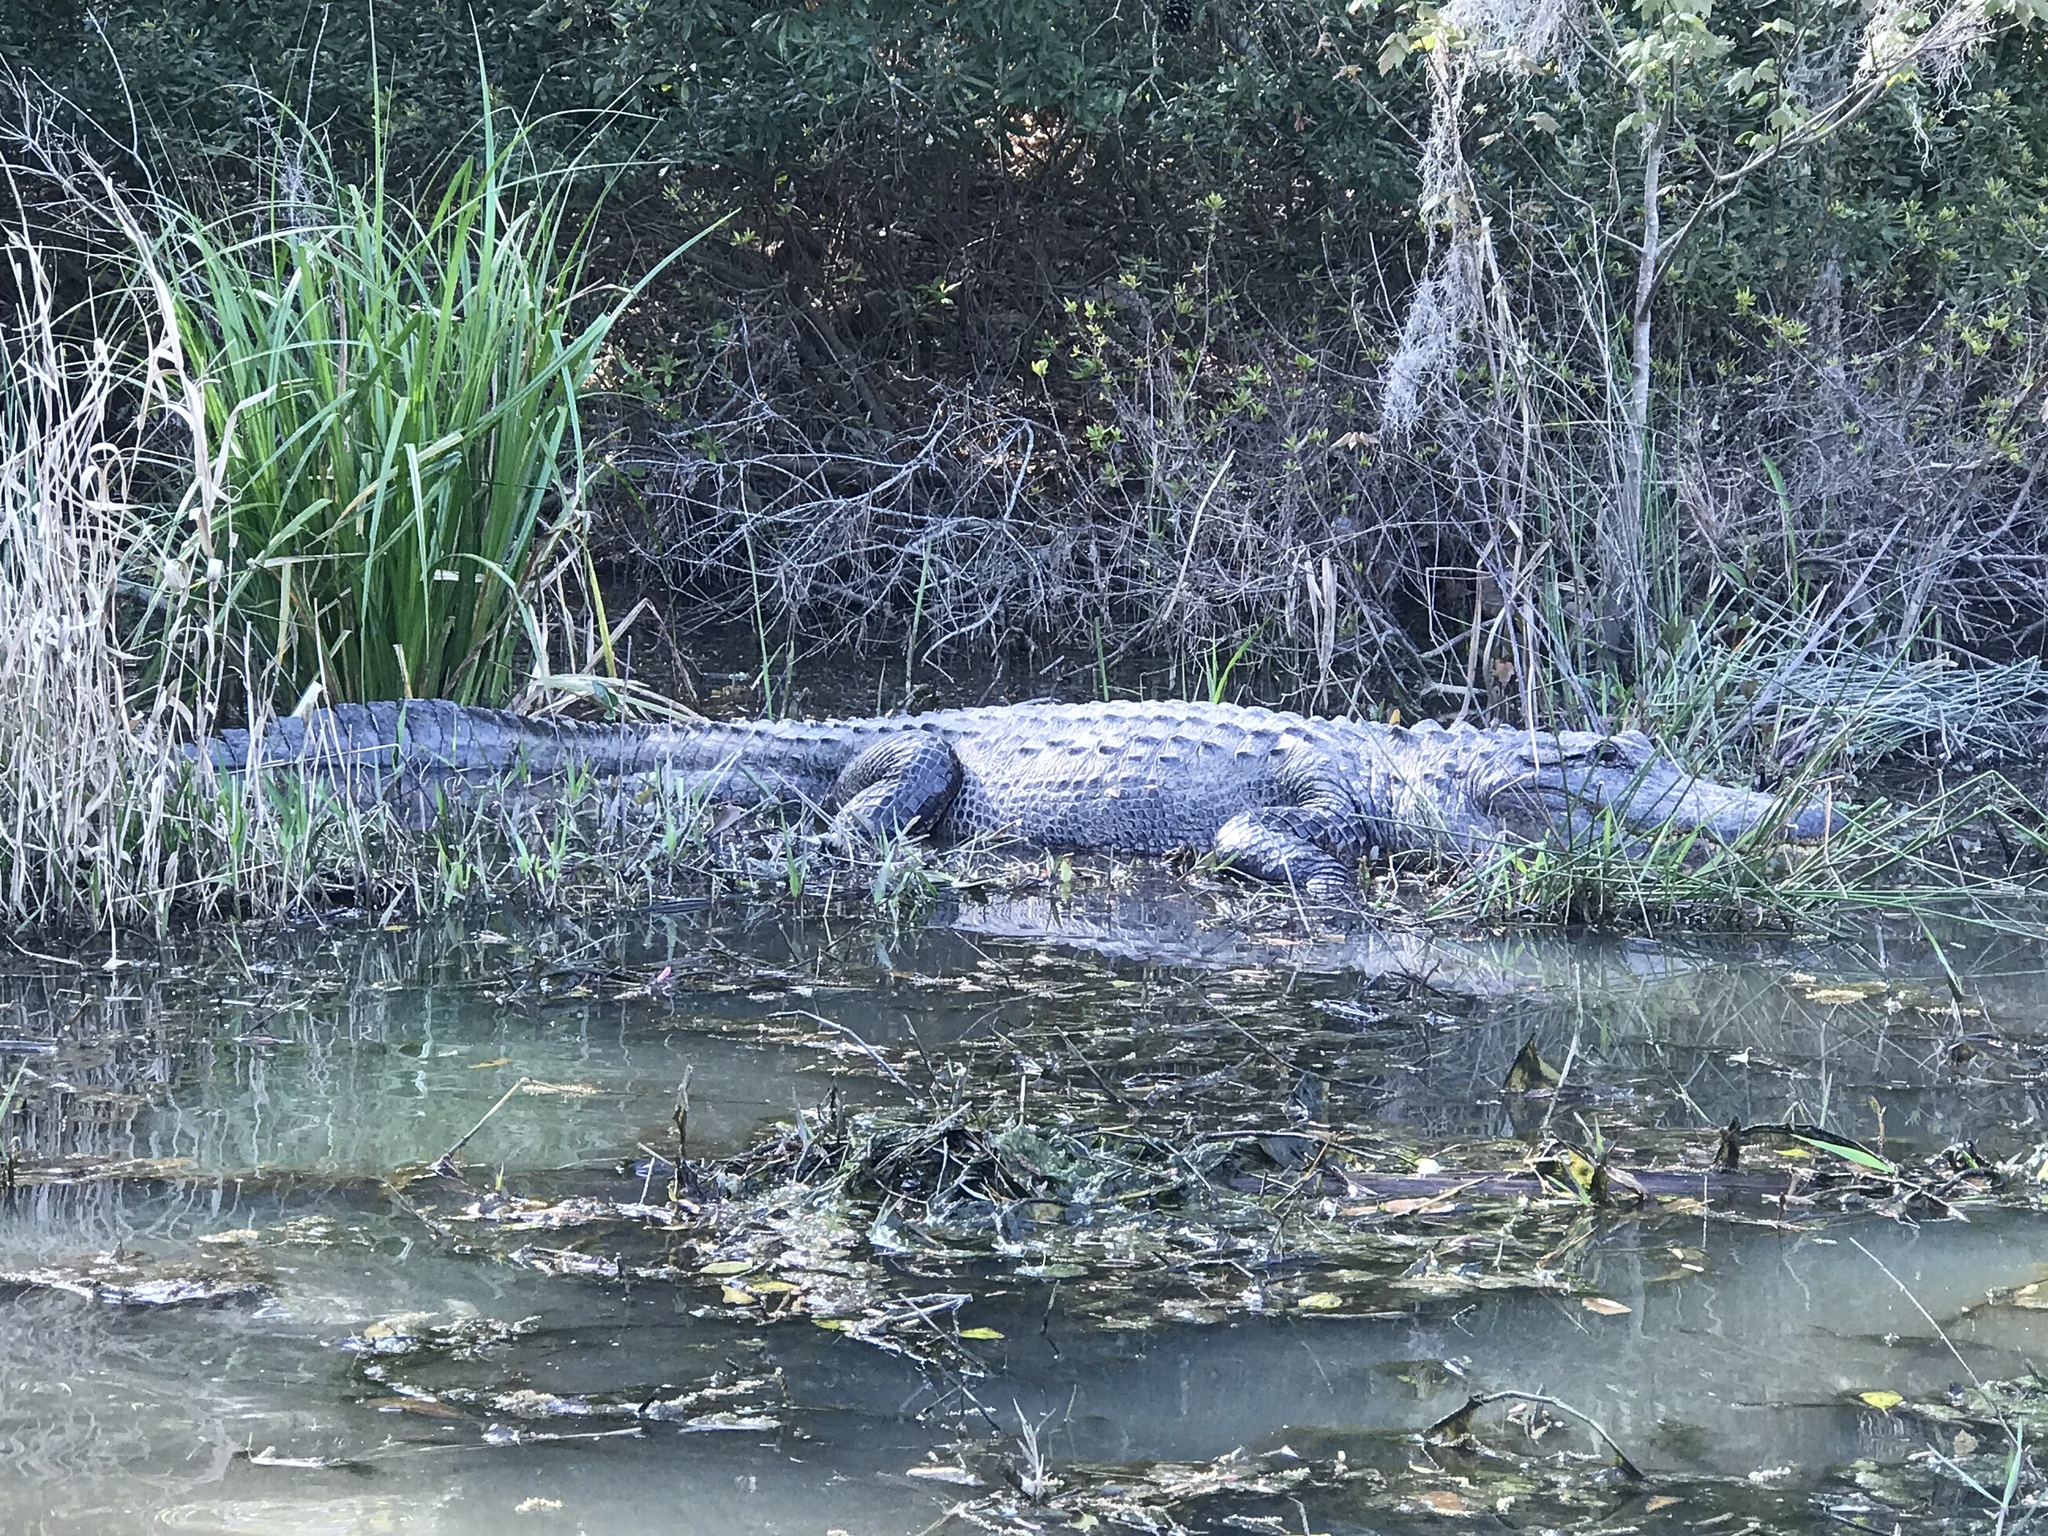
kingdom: Animalia
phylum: Chordata
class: Crocodylia
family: Alligatoridae
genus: Alligator
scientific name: Alligator mississippiensis
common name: American alligator
